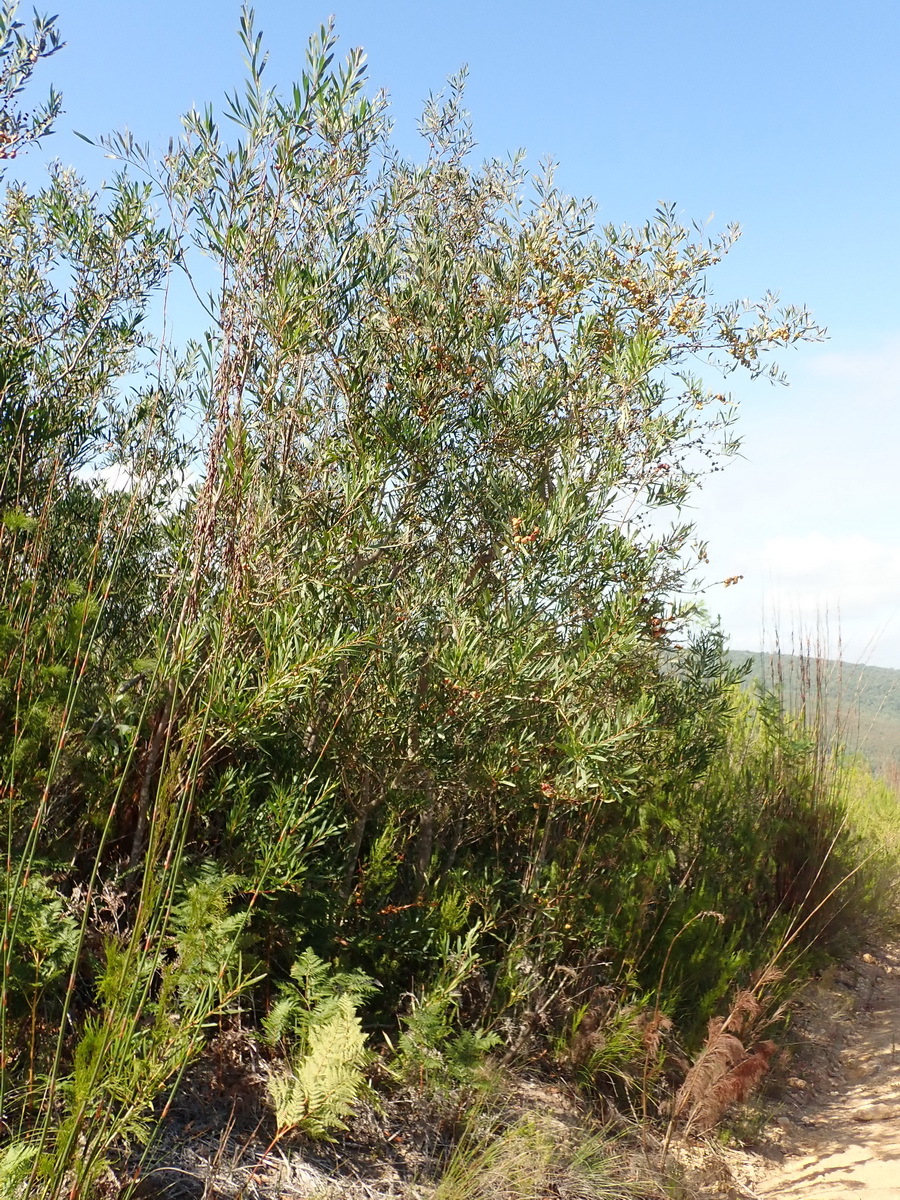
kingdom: Plantae
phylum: Tracheophyta
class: Magnoliopsida
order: Fabales
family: Fabaceae
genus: Acacia
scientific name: Acacia longifolia
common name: Sydney golden wattle
